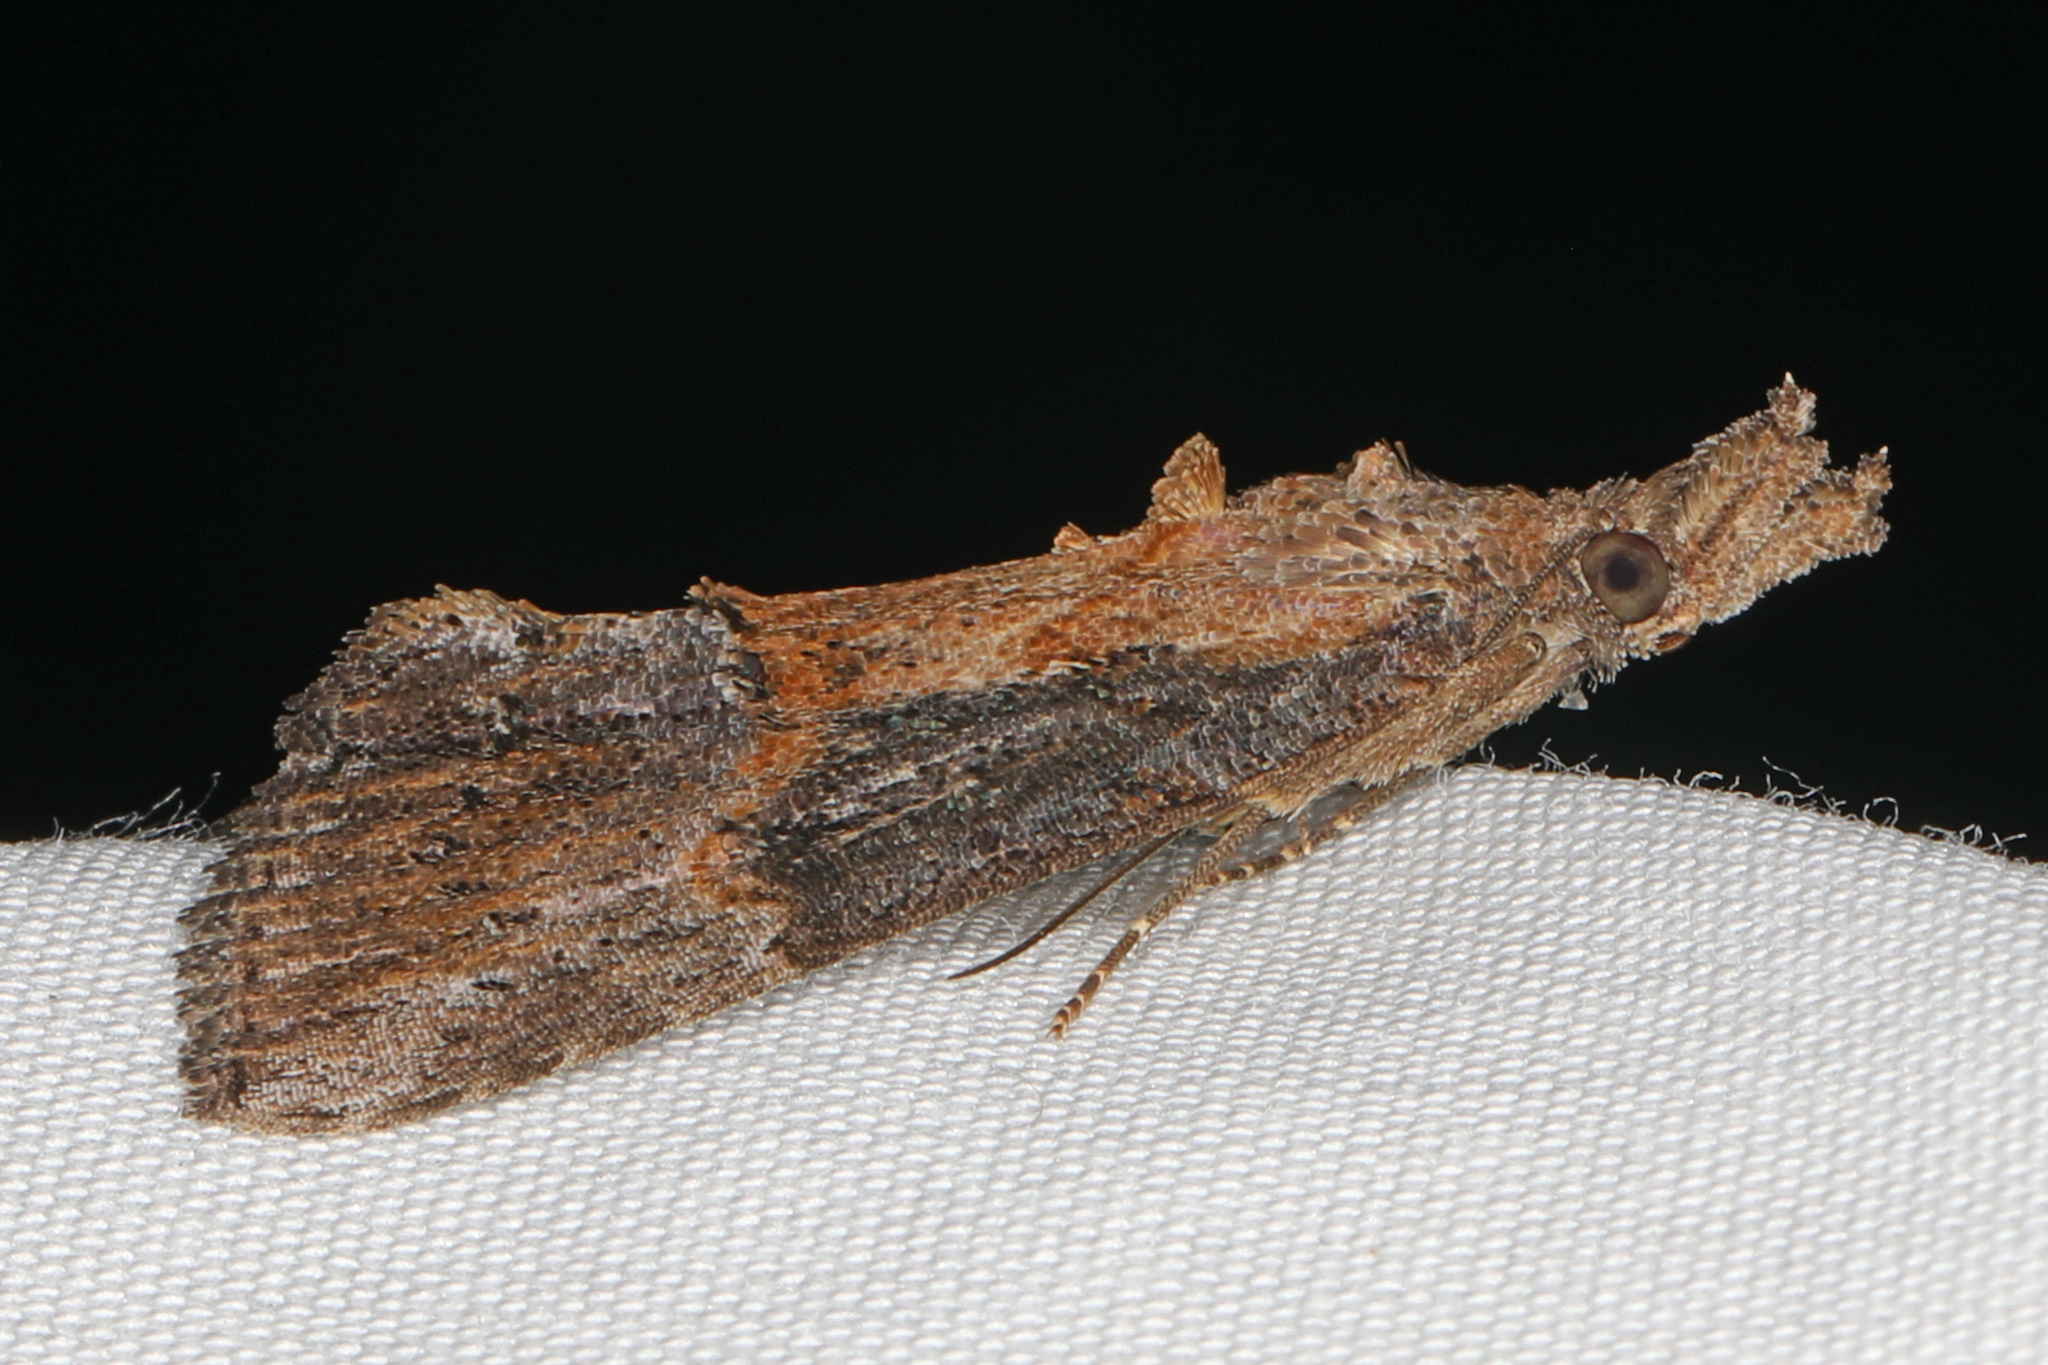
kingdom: Animalia
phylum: Arthropoda
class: Insecta
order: Lepidoptera
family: Erebidae
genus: Hypena
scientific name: Hypena scabra
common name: Green cloverworm
